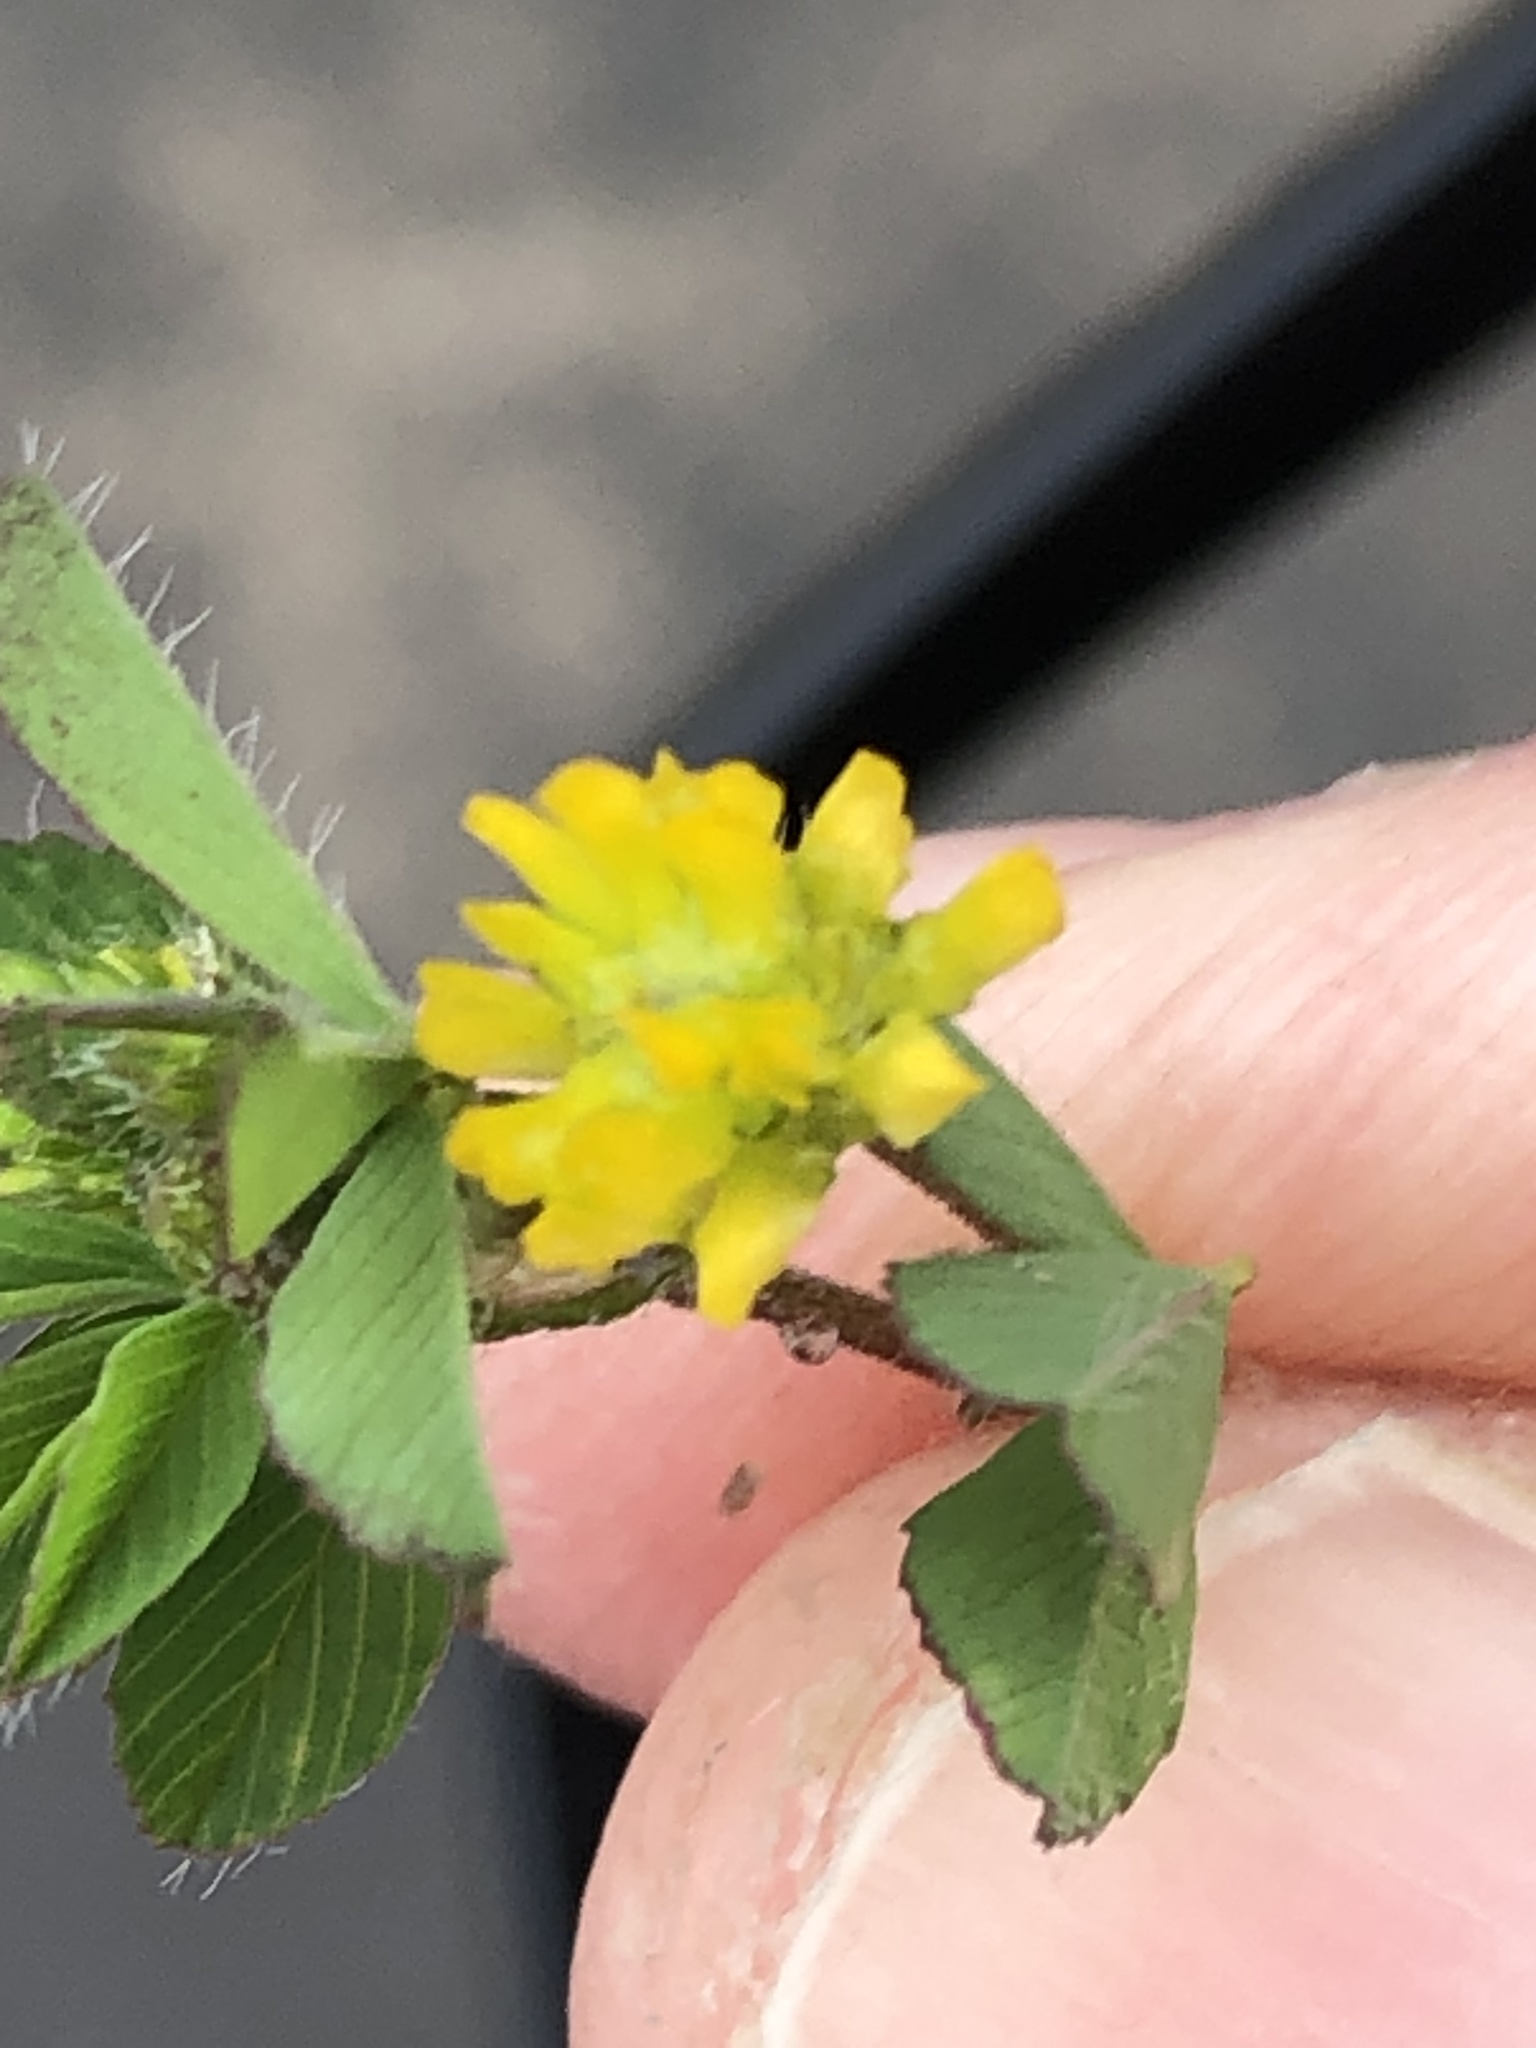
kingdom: Plantae
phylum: Tracheophyta
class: Magnoliopsida
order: Fabales
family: Fabaceae
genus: Trifolium
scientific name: Trifolium dubium
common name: Suckling clover
